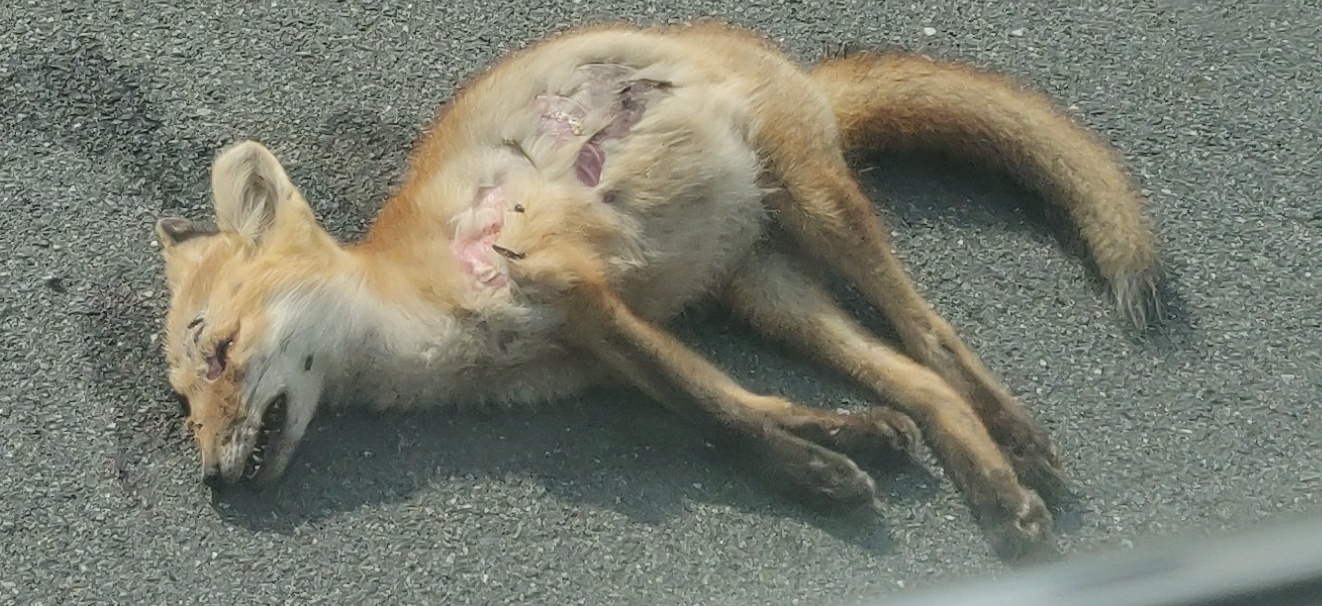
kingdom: Animalia
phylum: Chordata
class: Mammalia
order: Carnivora
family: Canidae
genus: Vulpes
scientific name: Vulpes vulpes
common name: Red fox
